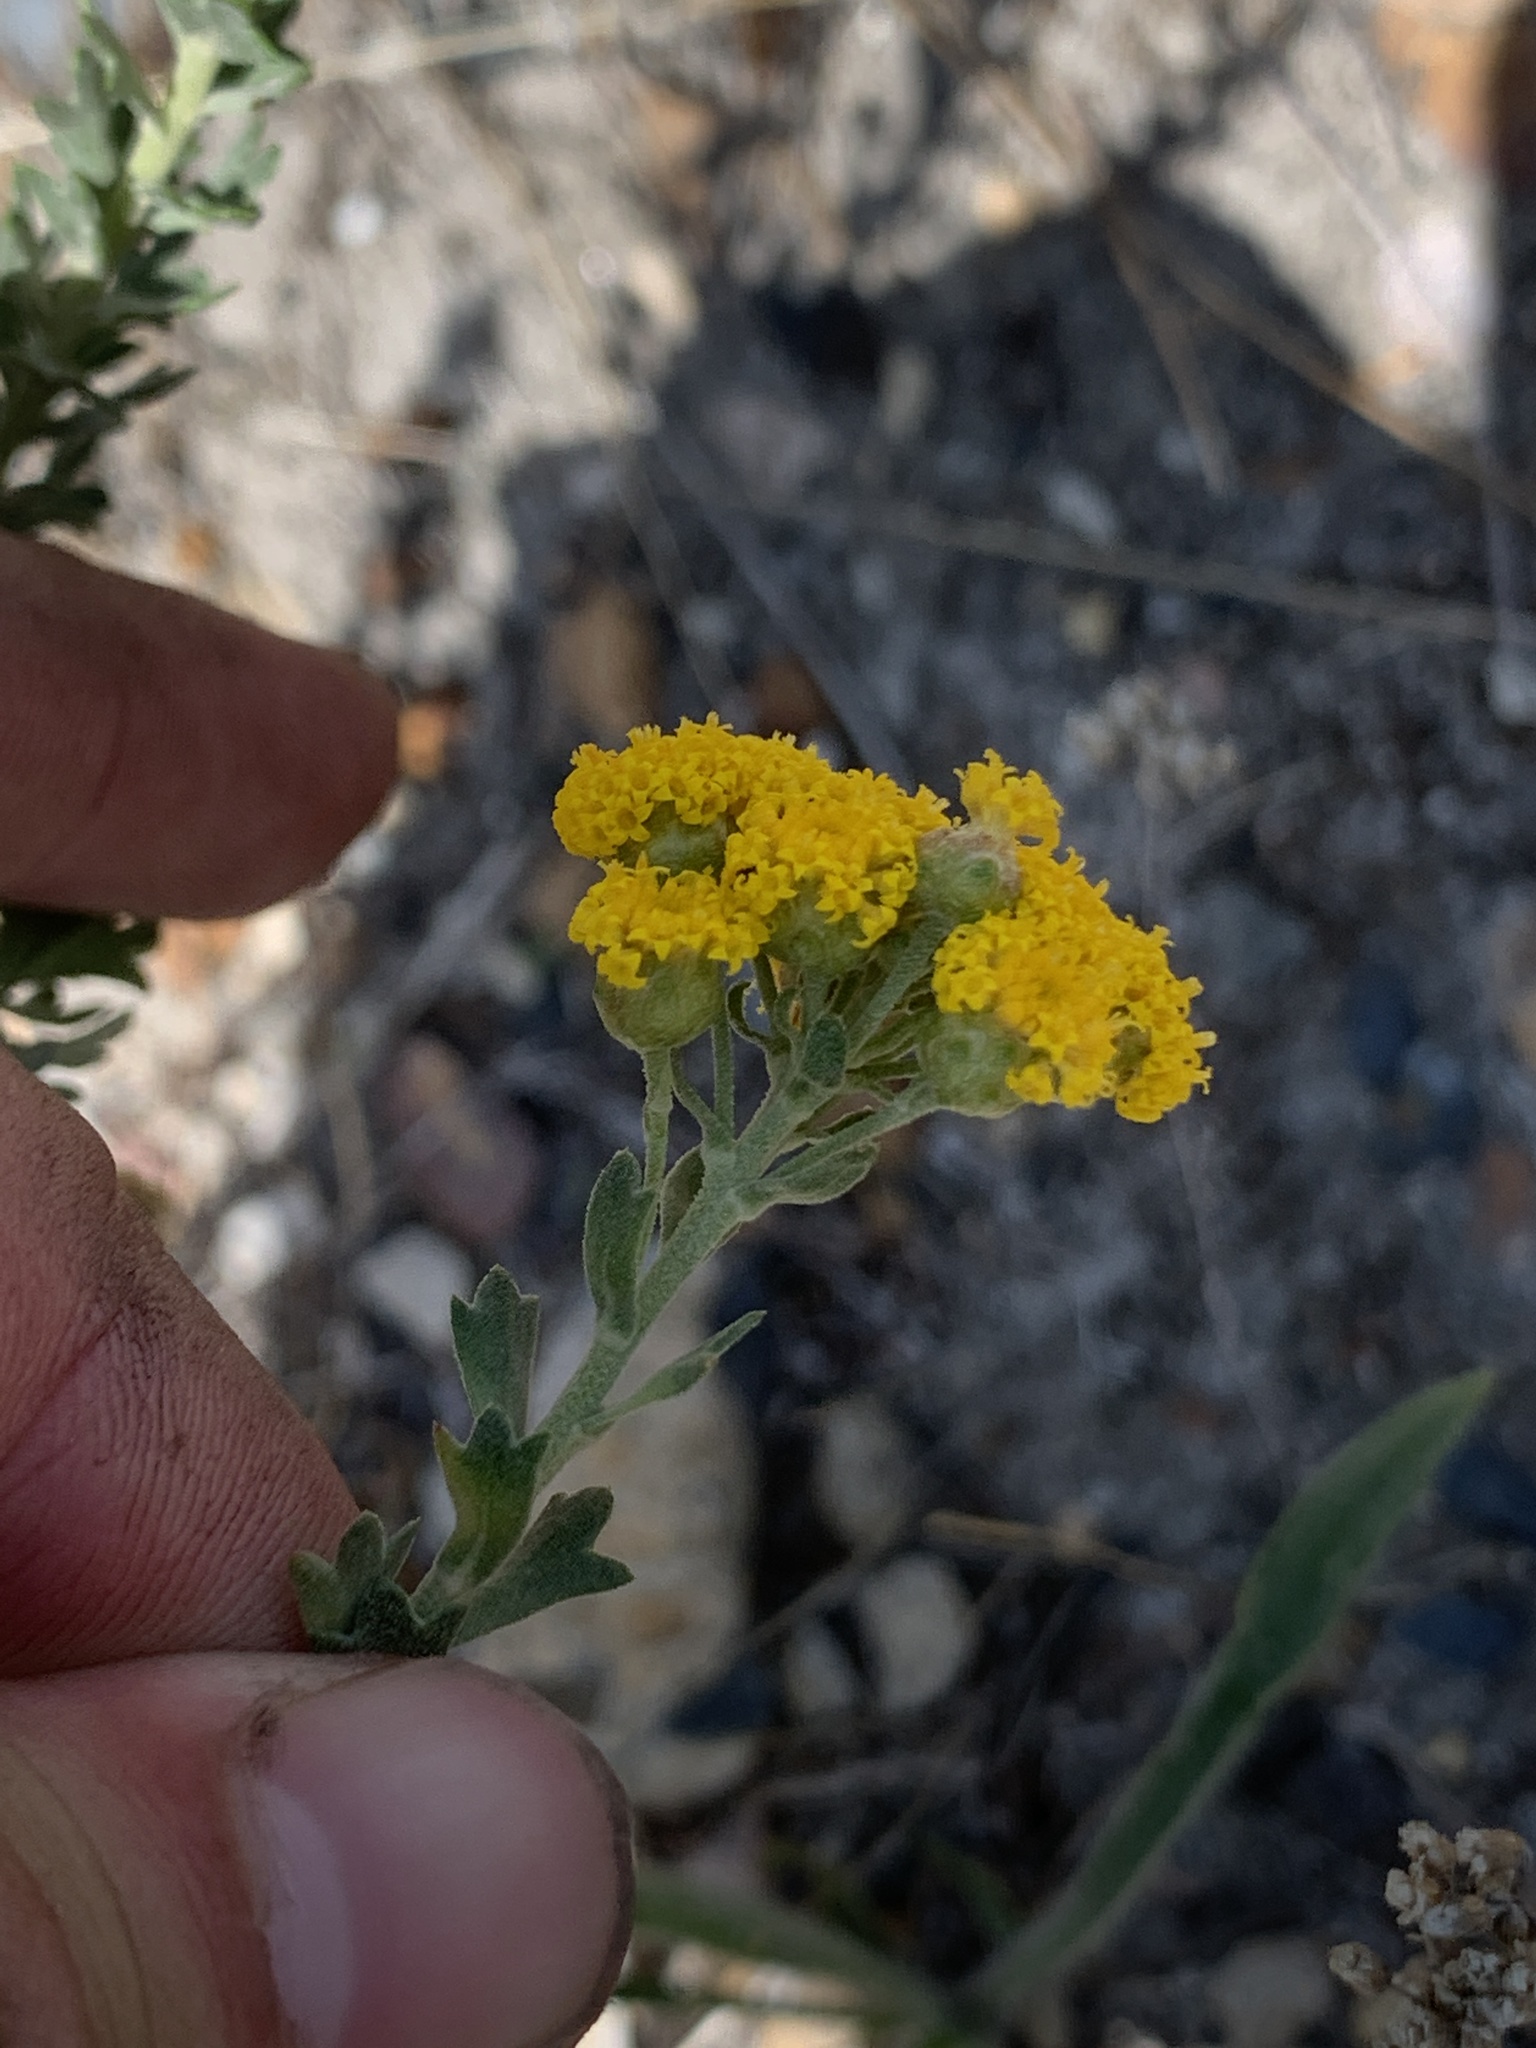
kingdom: Plantae
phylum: Tracheophyta
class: Magnoliopsida
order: Asterales
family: Asteraceae
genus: Athanasia
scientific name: Athanasia trifurcata
